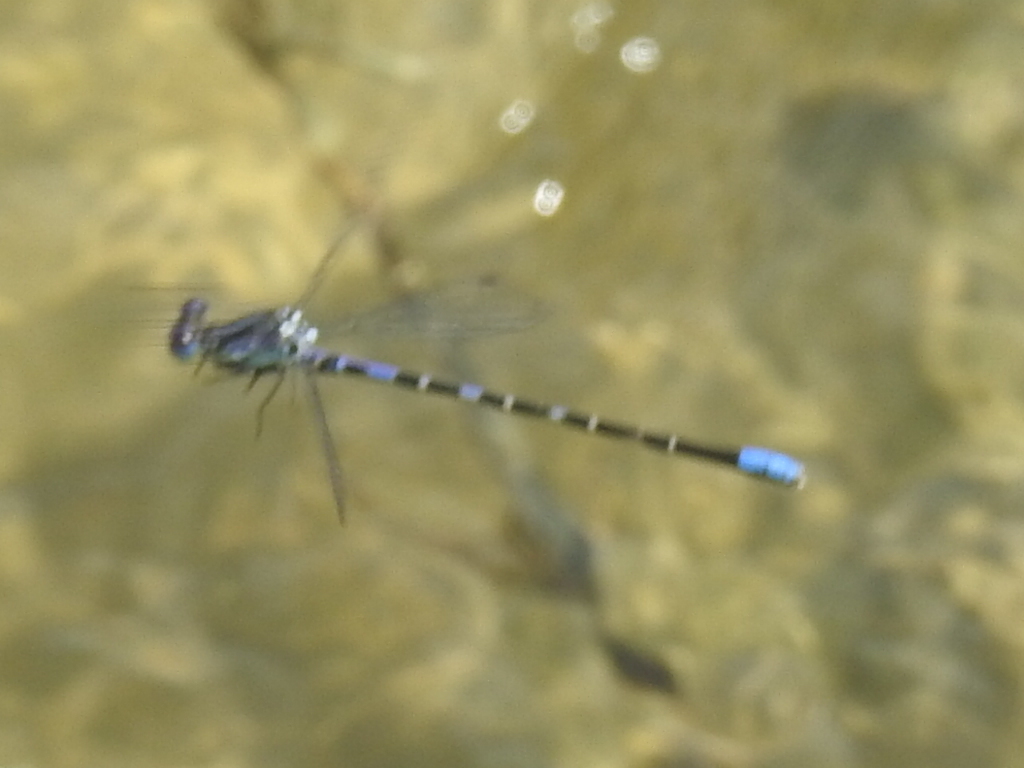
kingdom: Animalia
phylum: Arthropoda
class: Insecta
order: Odonata
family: Coenagrionidae
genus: Argia
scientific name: Argia immunda
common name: Kiowa dancer
